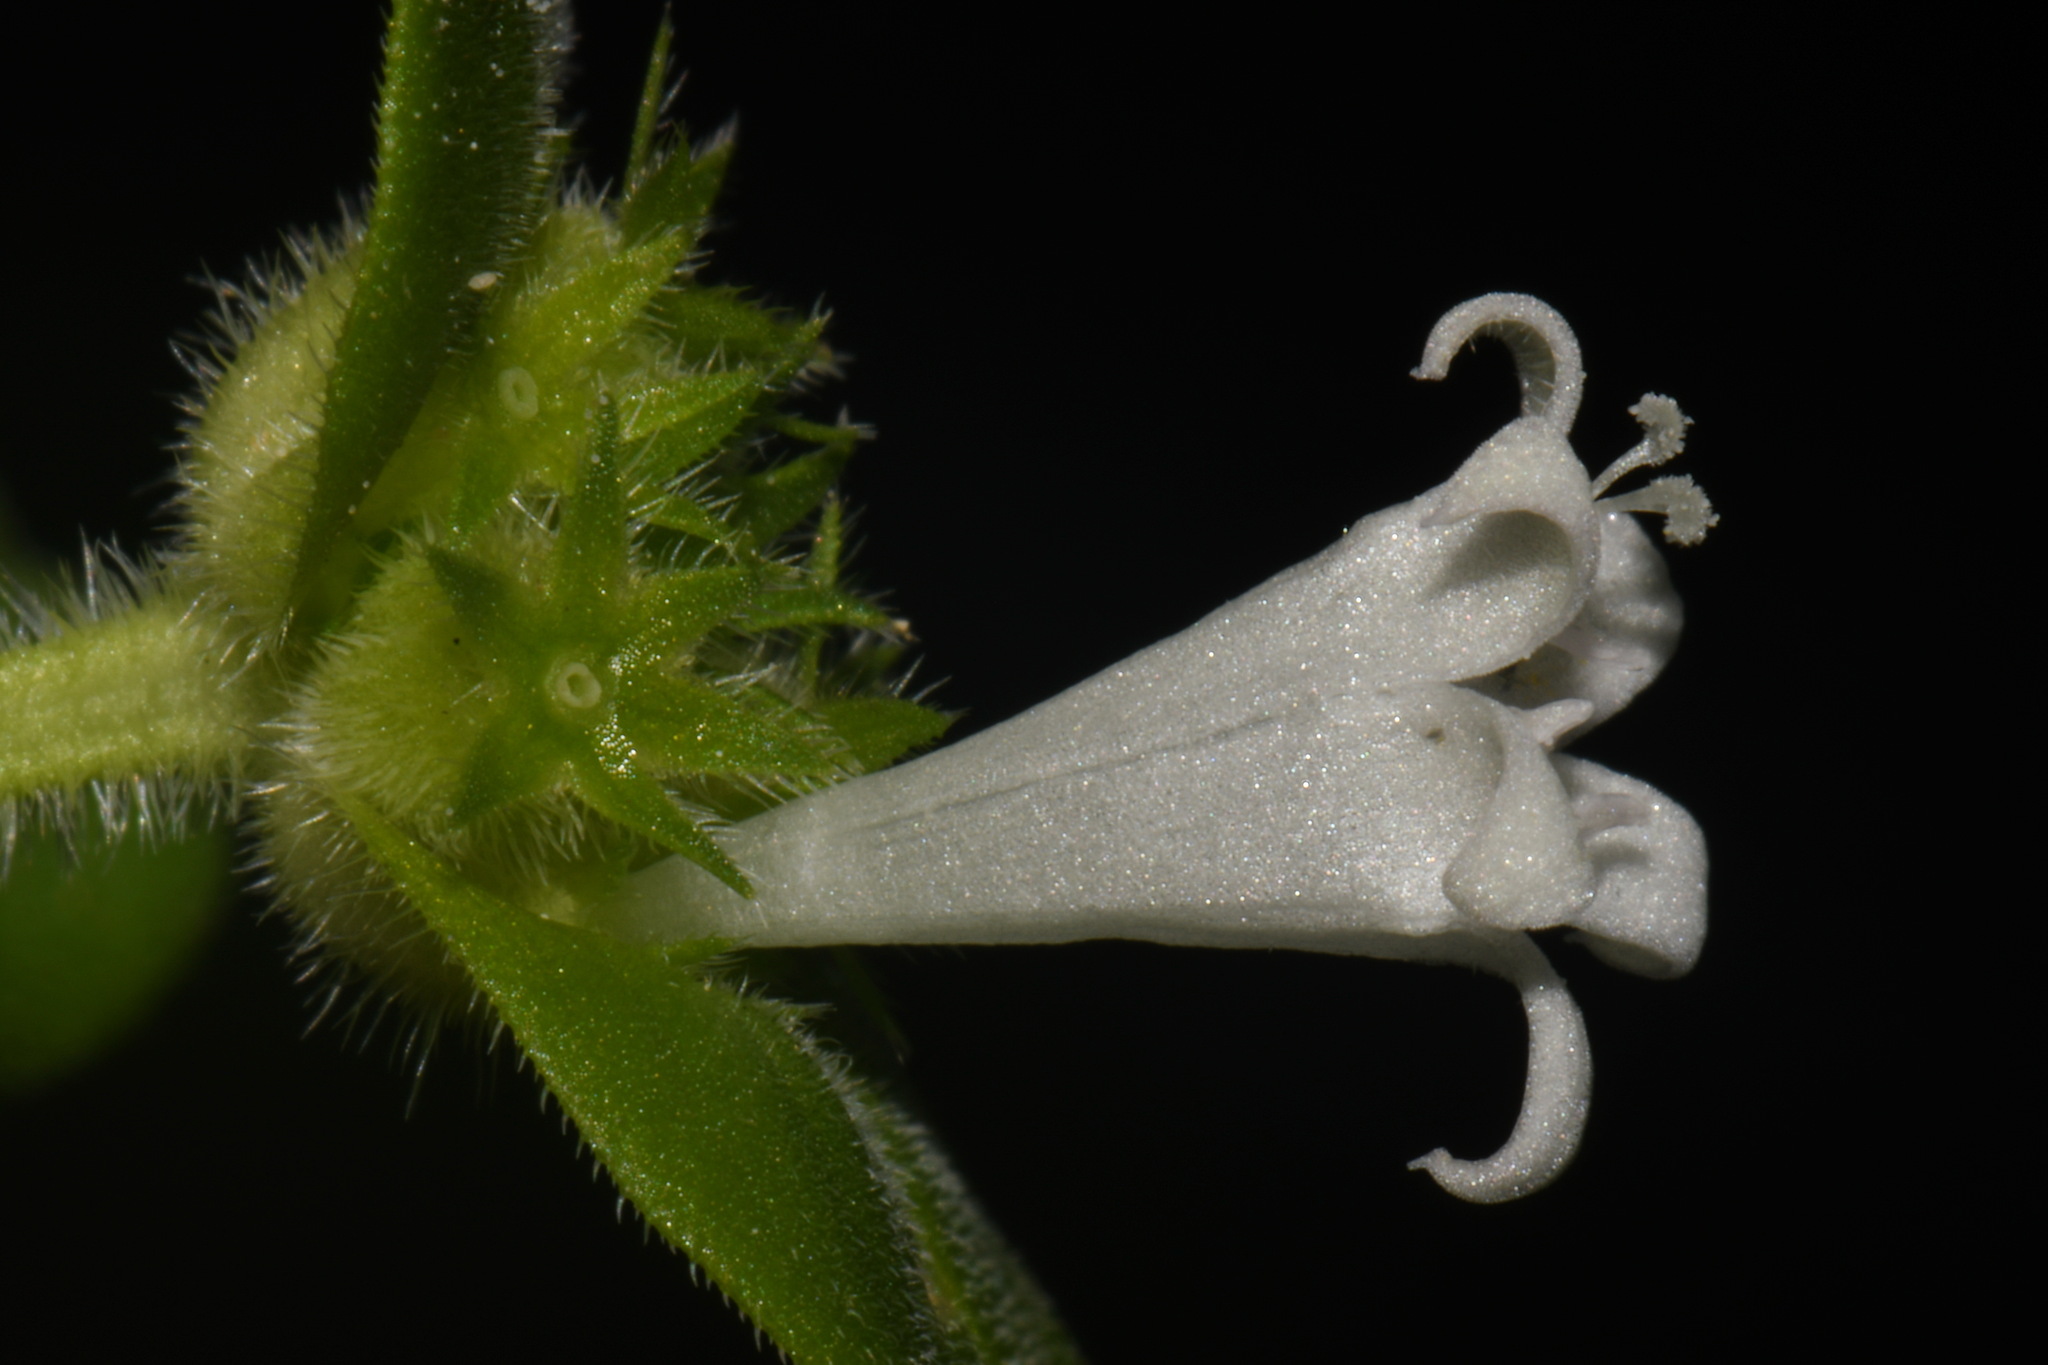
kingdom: Plantae
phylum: Tracheophyta
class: Magnoliopsida
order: Gentianales
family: Rubiaceae
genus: Richardia
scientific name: Richardia brasiliensis
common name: Tropical mexican clover
